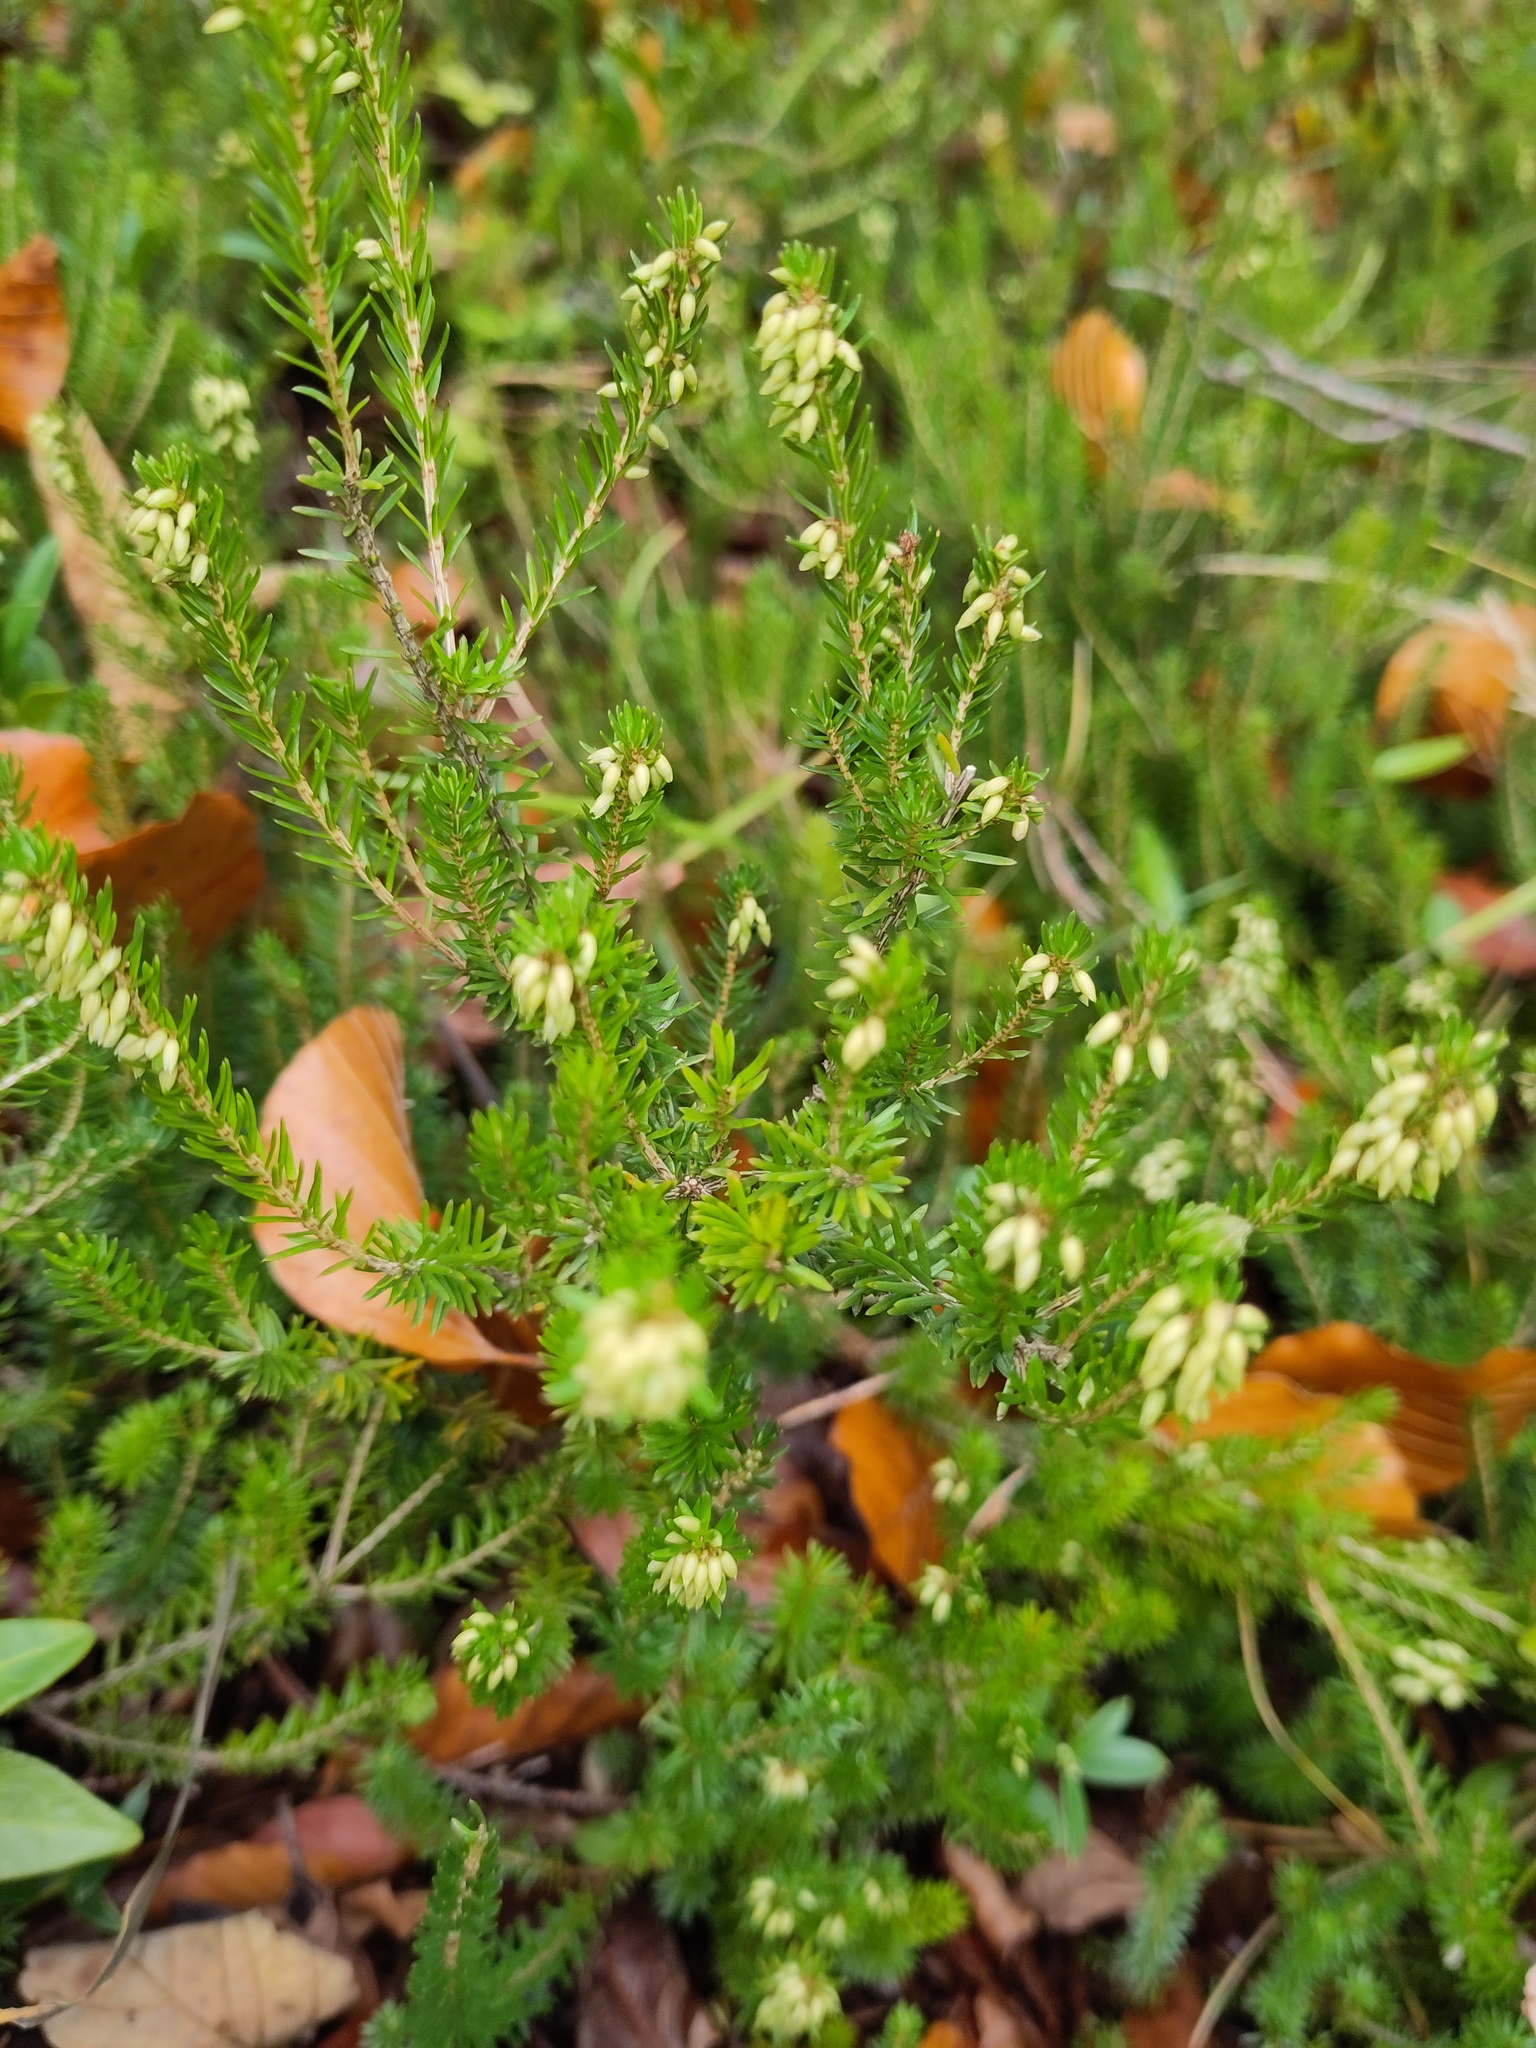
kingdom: Plantae
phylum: Tracheophyta
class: Magnoliopsida
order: Ericales
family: Ericaceae
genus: Erica
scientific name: Erica carnea
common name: Winter heath
